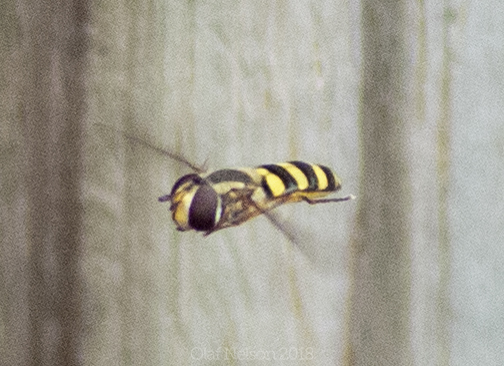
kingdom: Animalia
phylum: Arthropoda
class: Insecta
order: Diptera
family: Syrphidae
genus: Eupeodes
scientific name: Eupeodes
